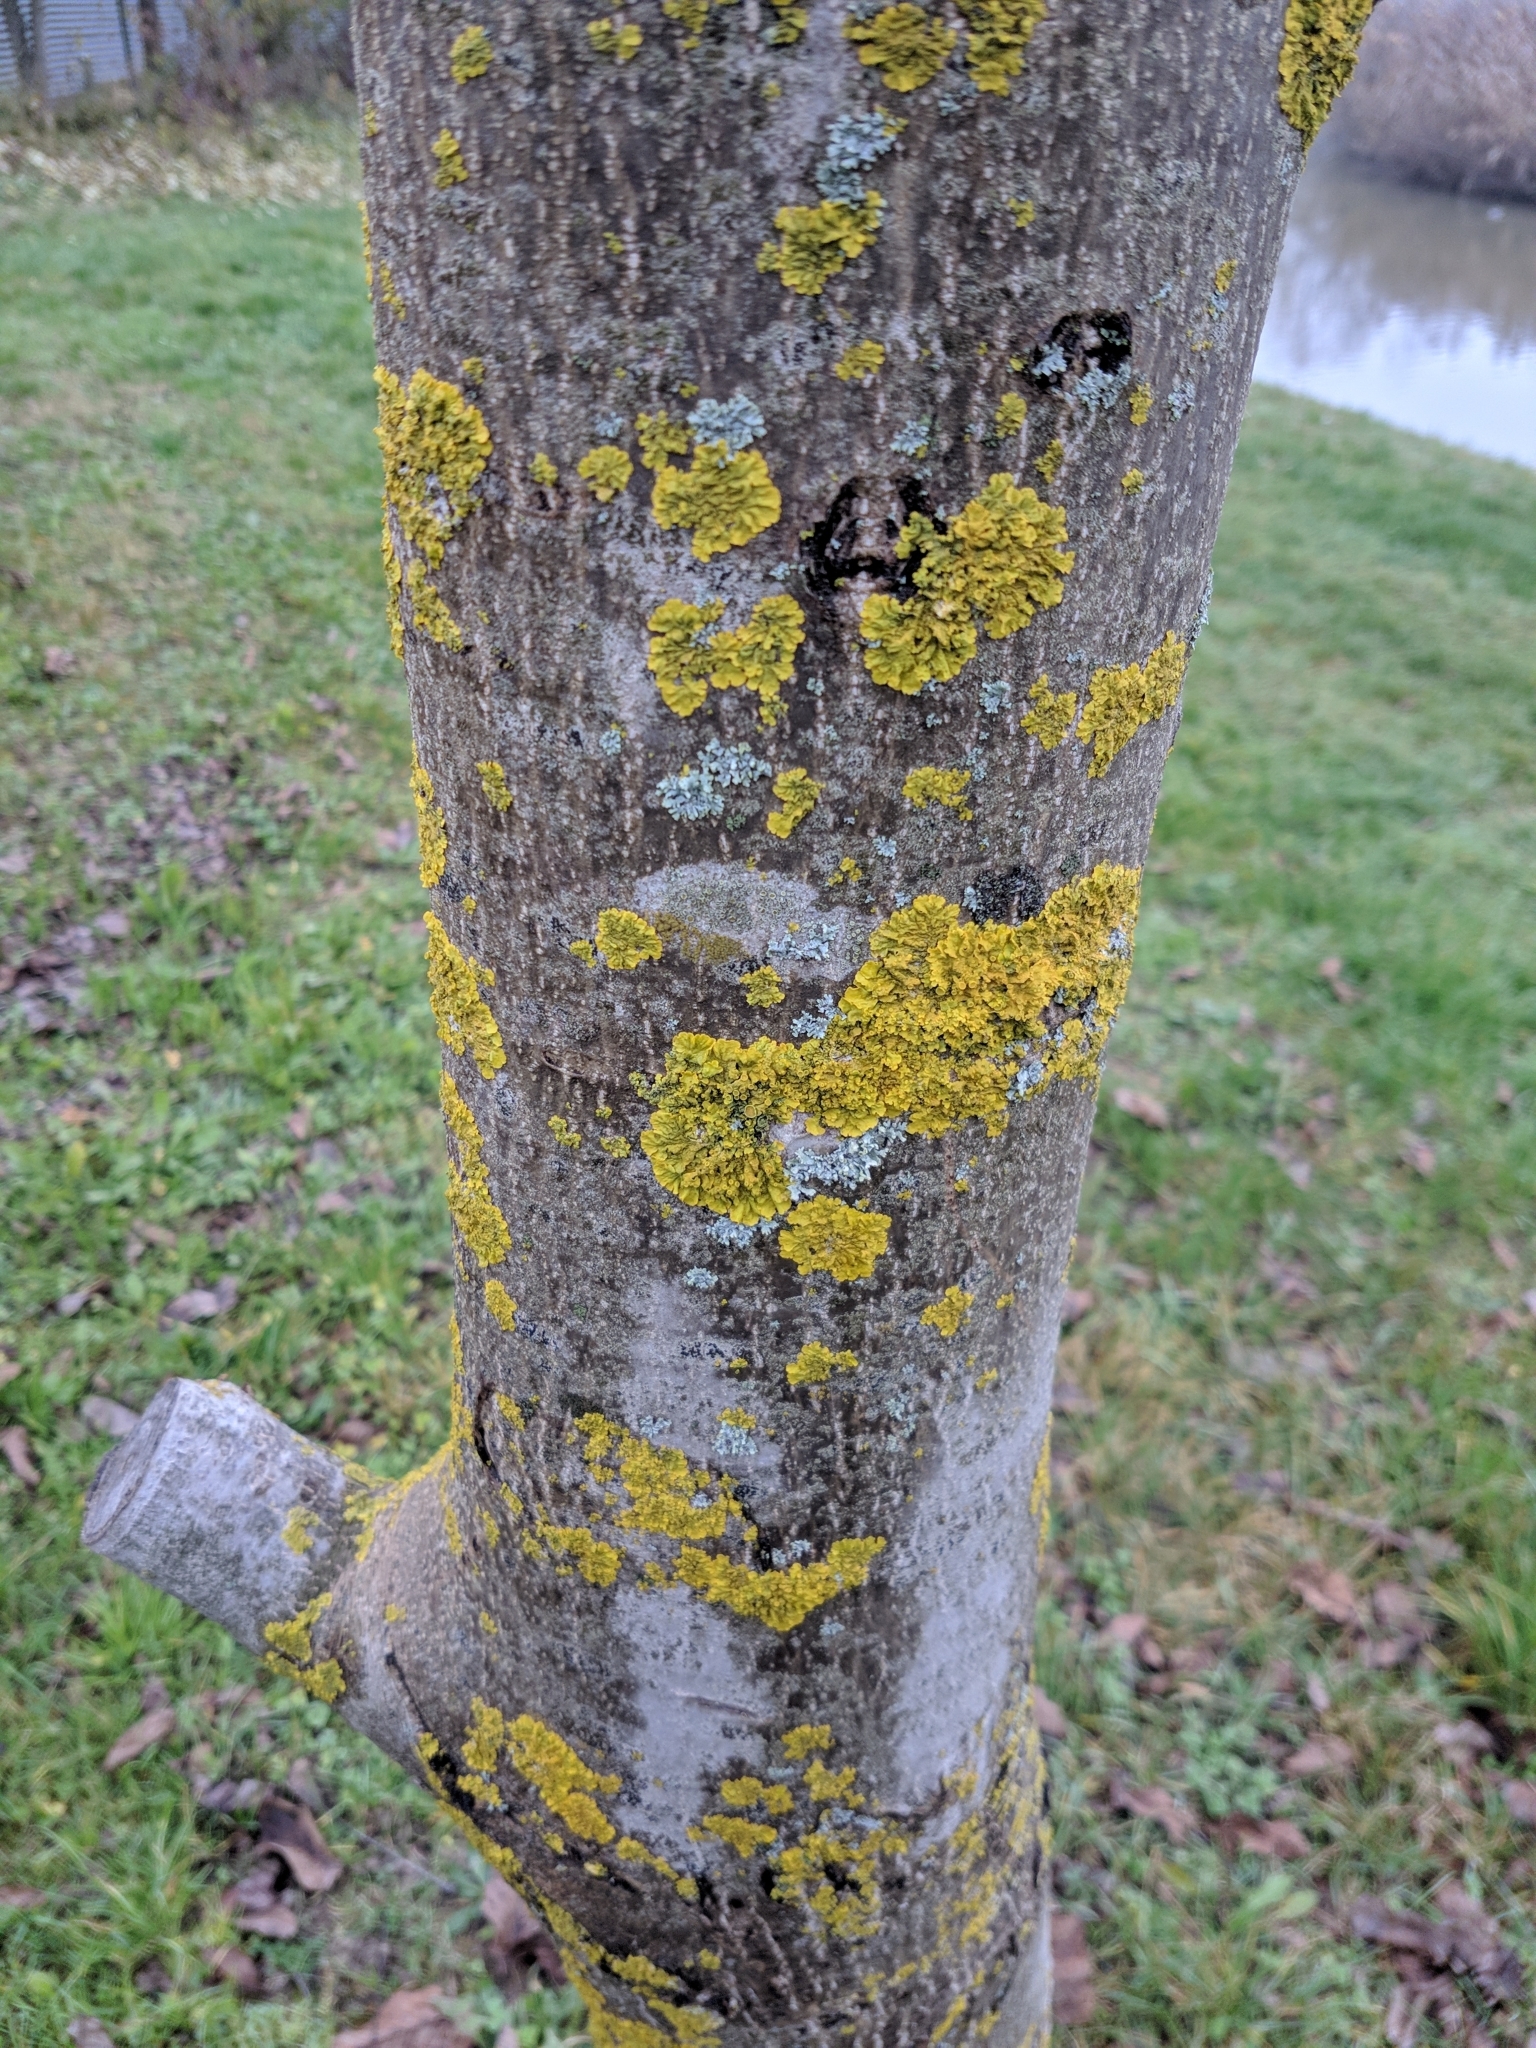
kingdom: Fungi
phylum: Ascomycota
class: Lecanoromycetes
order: Teloschistales
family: Teloschistaceae
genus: Xanthoria
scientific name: Xanthoria parietina
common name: Common orange lichen
